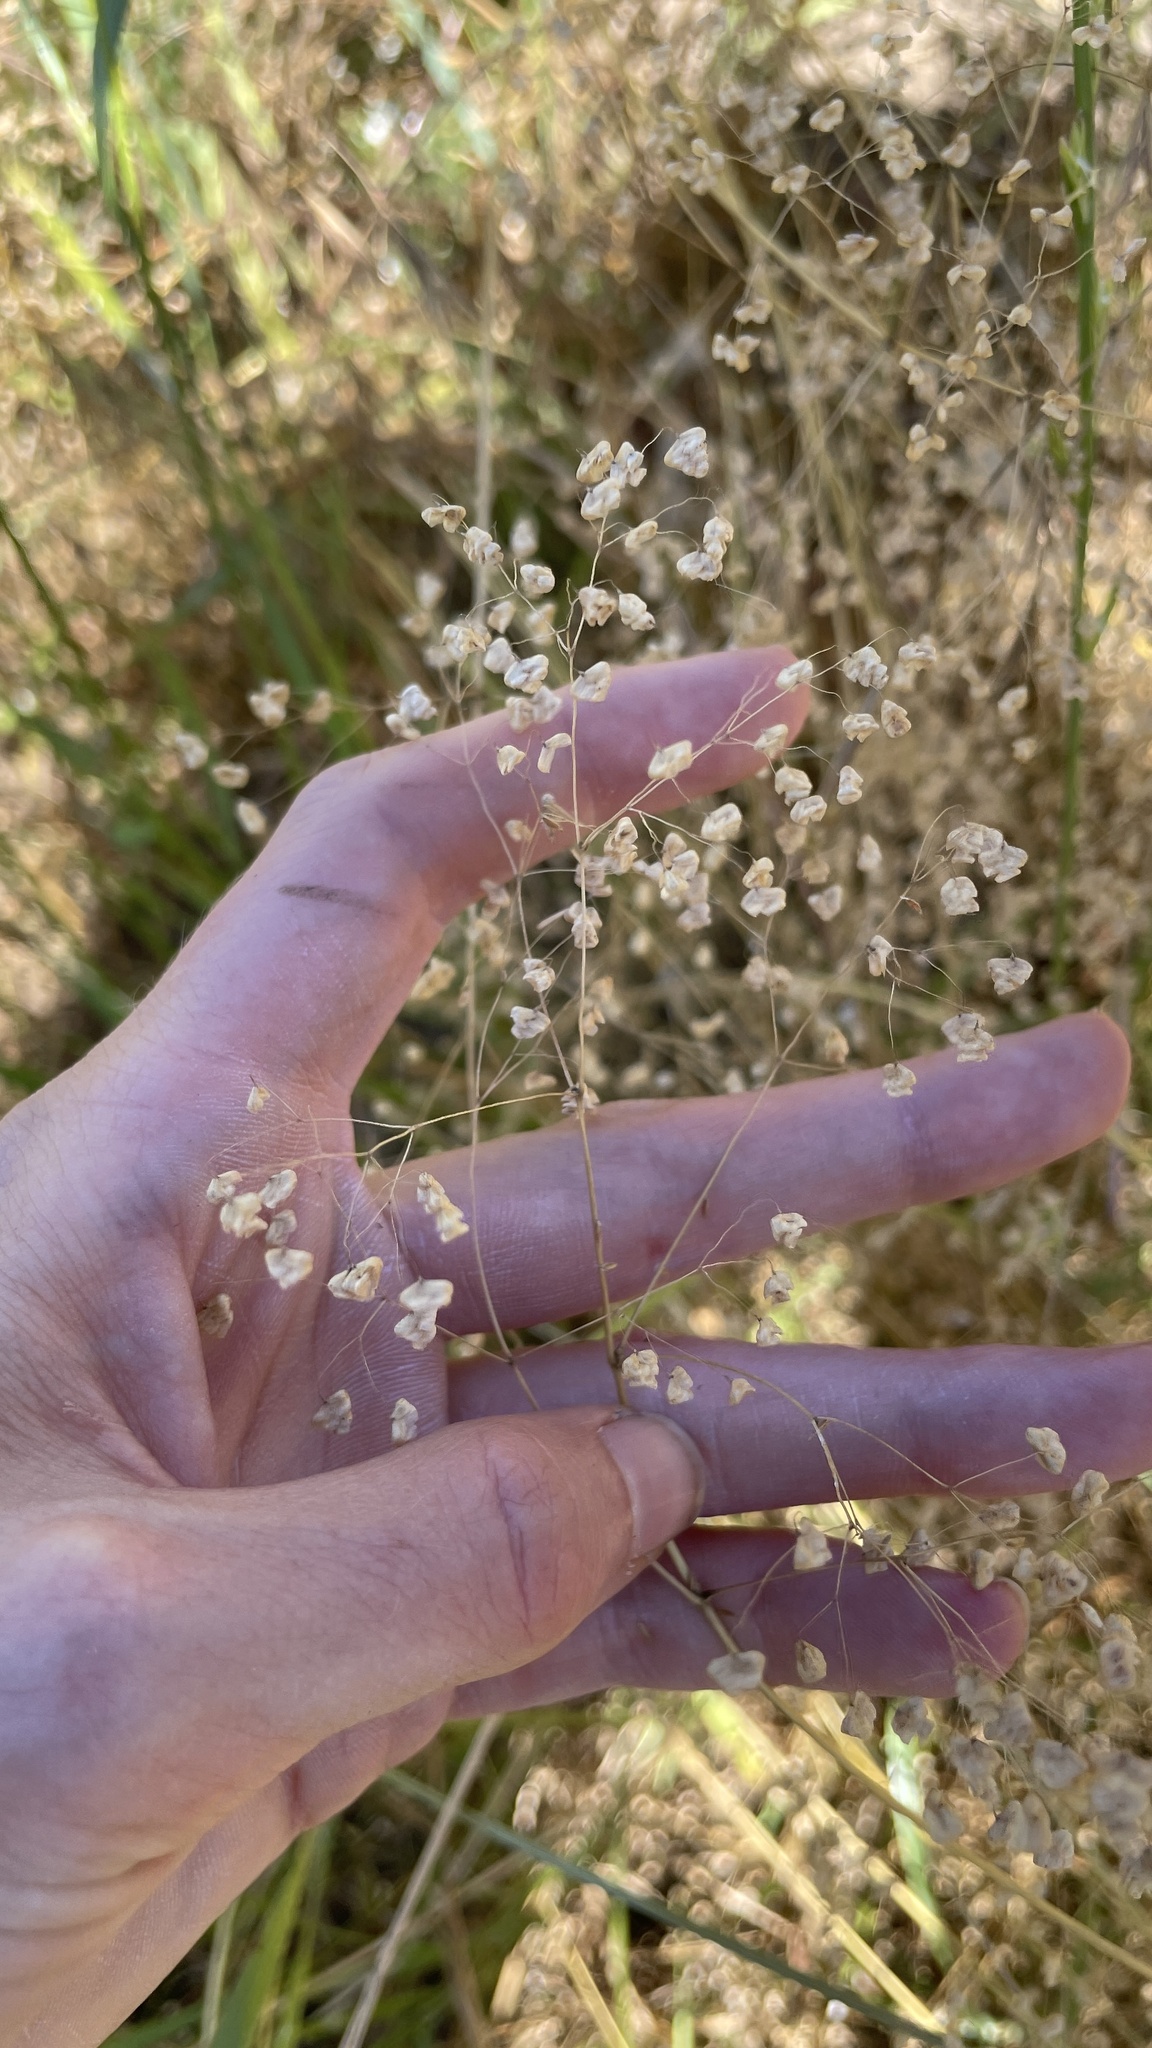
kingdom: Plantae
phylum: Tracheophyta
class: Liliopsida
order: Poales
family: Poaceae
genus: Briza
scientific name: Briza minor
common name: Lesser quaking-grass
